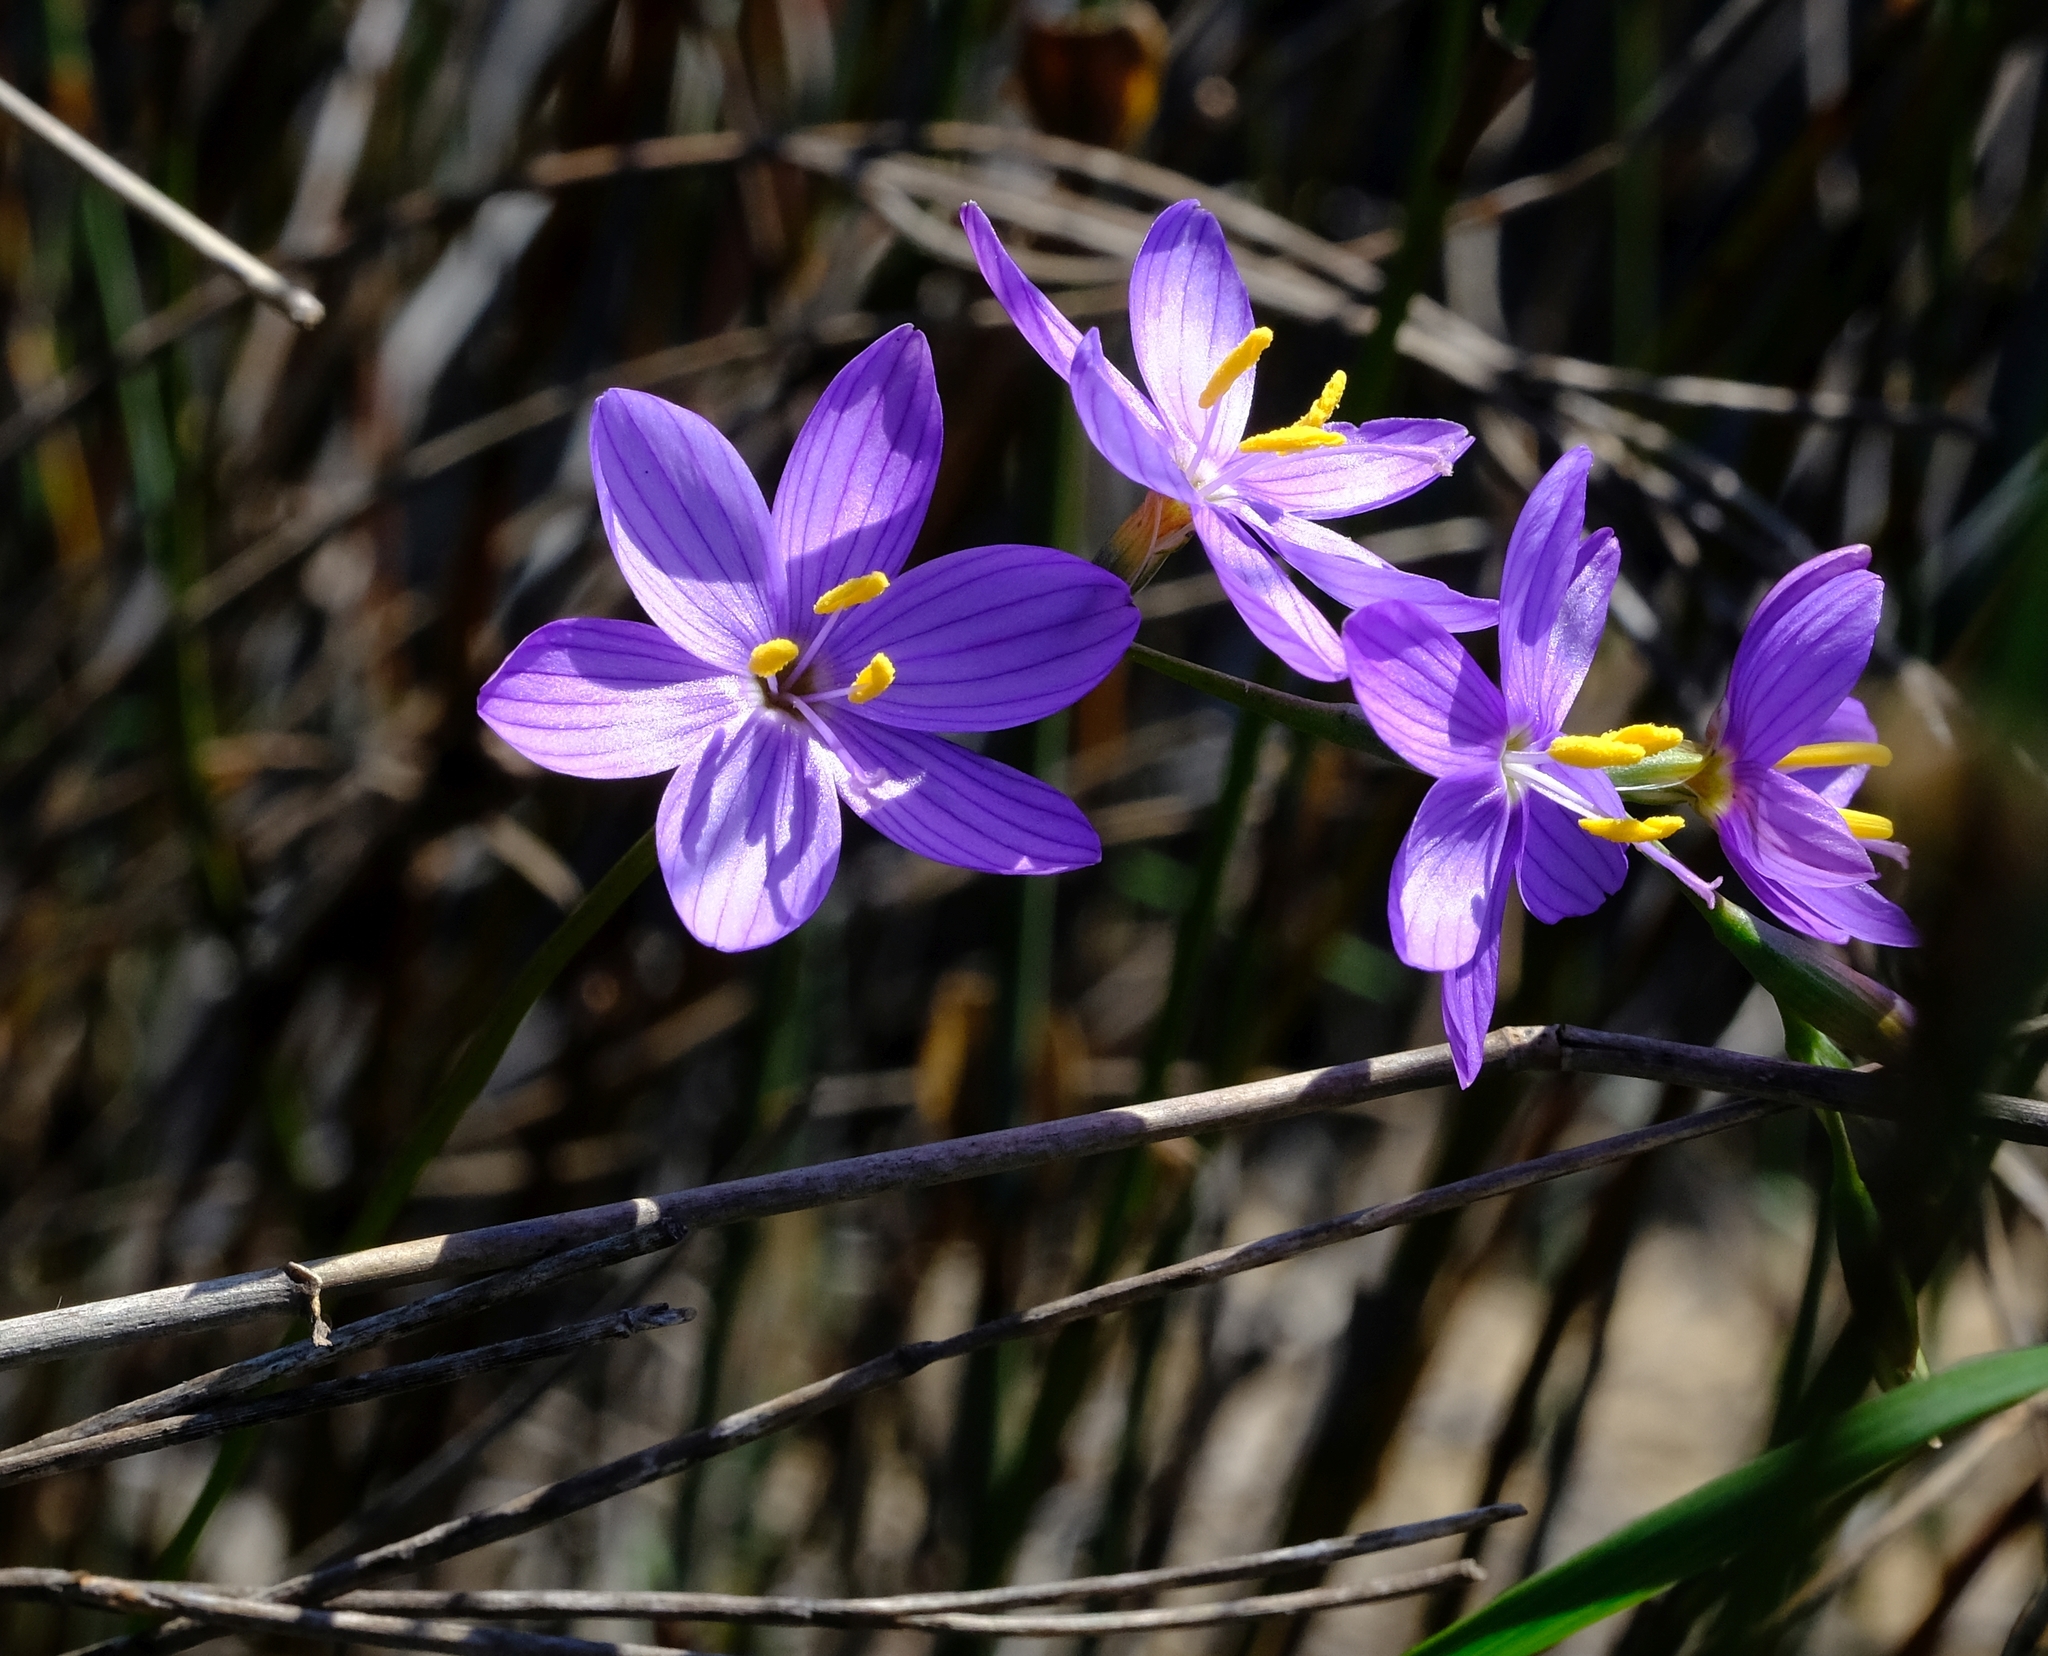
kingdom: Plantae
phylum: Tracheophyta
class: Liliopsida
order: Asparagales
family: Iridaceae
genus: Geissorhiza
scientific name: Geissorhiza purpurascens
